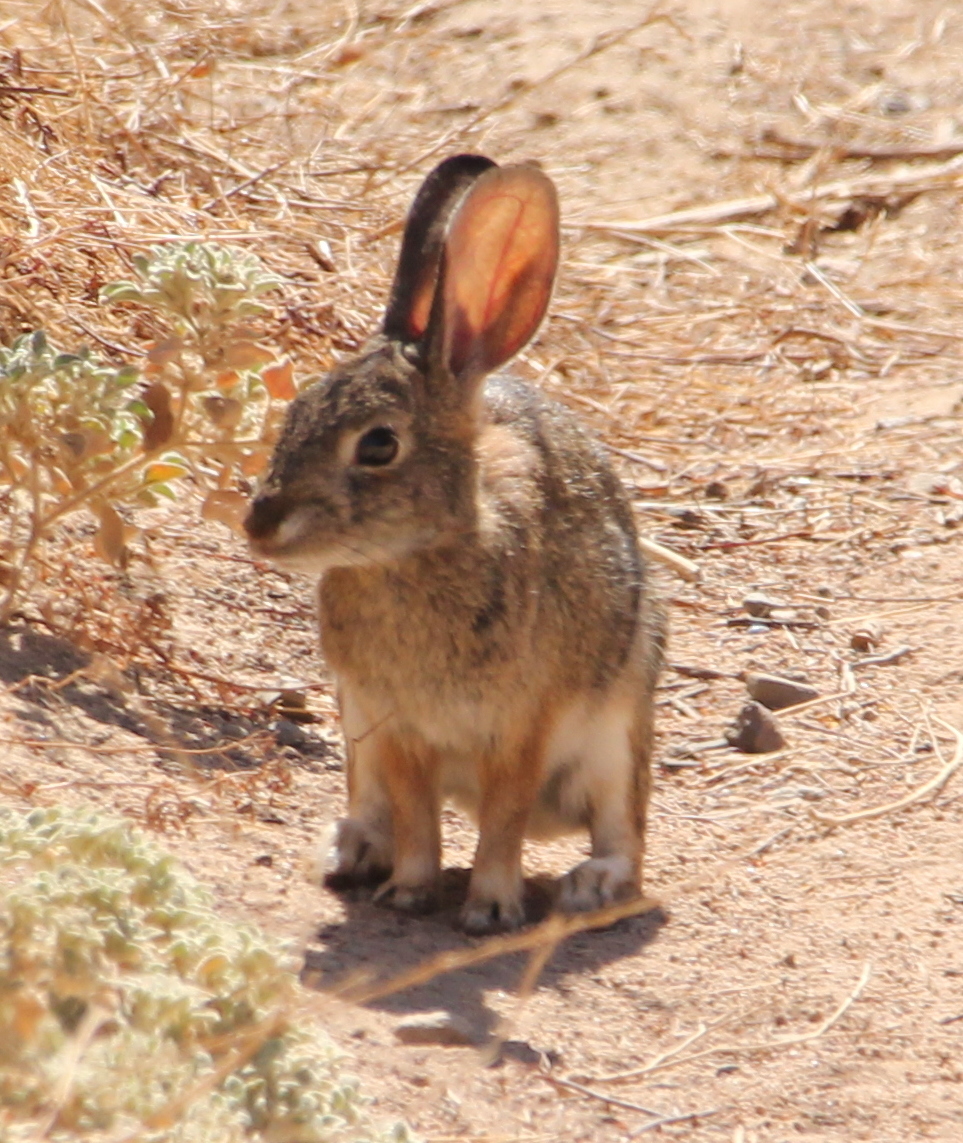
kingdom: Animalia
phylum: Chordata
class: Mammalia
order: Lagomorpha
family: Leporidae
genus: Sylvilagus
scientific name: Sylvilagus audubonii
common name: Desert cottontail
